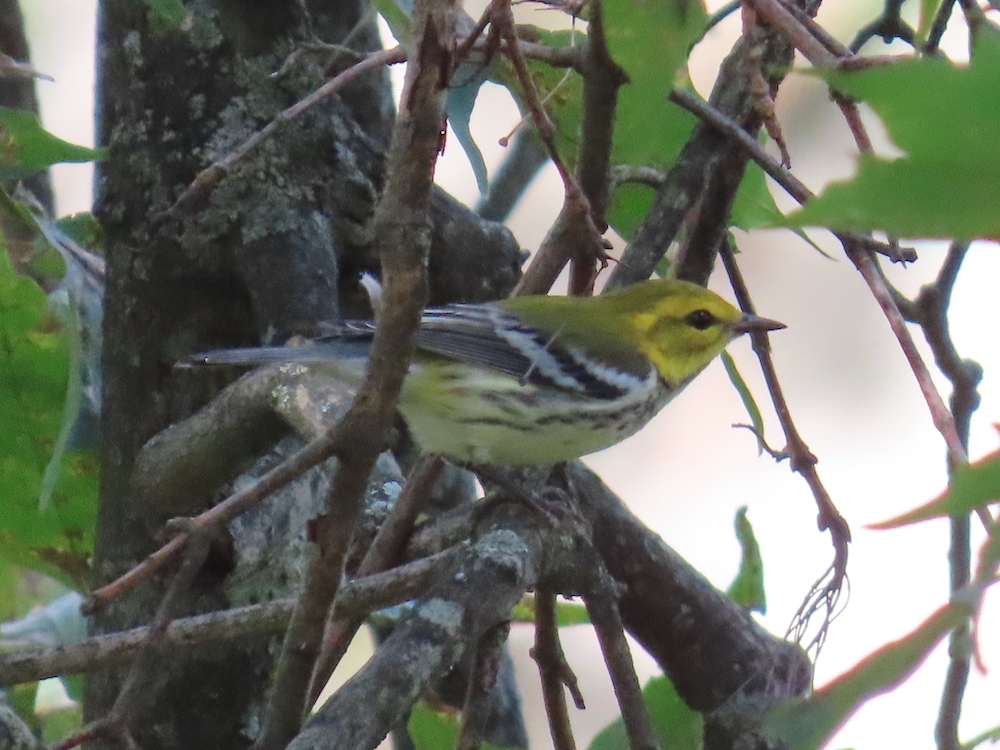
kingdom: Animalia
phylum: Chordata
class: Aves
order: Passeriformes
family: Parulidae
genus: Setophaga
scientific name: Setophaga virens
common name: Black-throated green warbler
